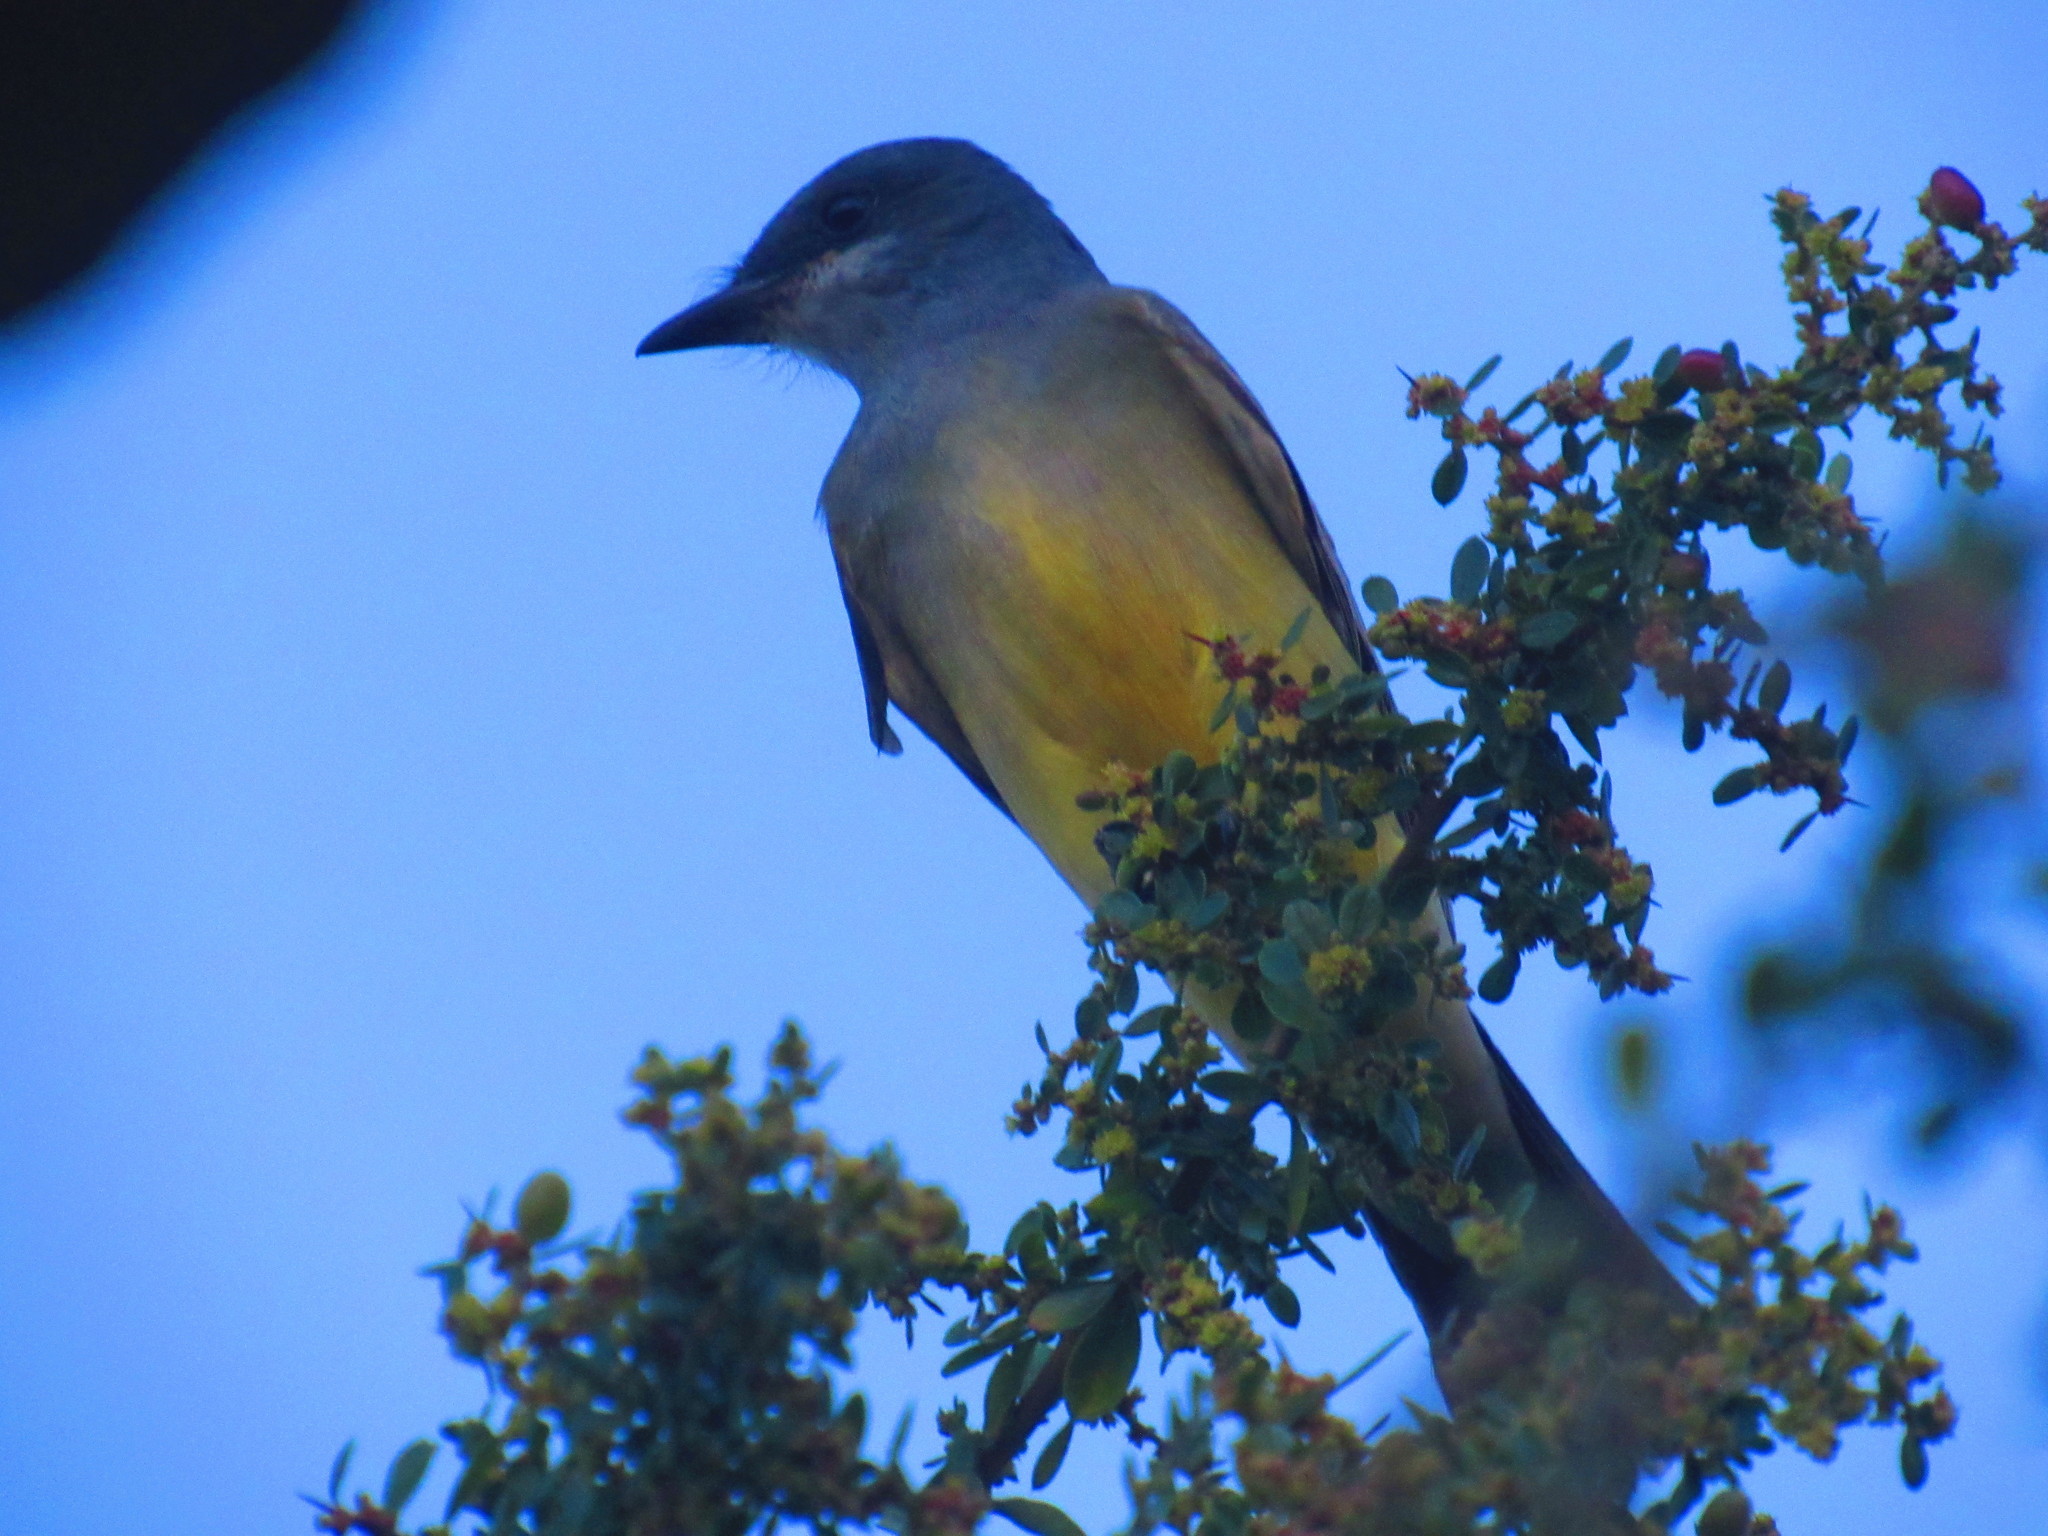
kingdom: Animalia
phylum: Chordata
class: Aves
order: Passeriformes
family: Tyrannidae
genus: Tyrannus
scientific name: Tyrannus vociferans
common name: Cassin's kingbird
